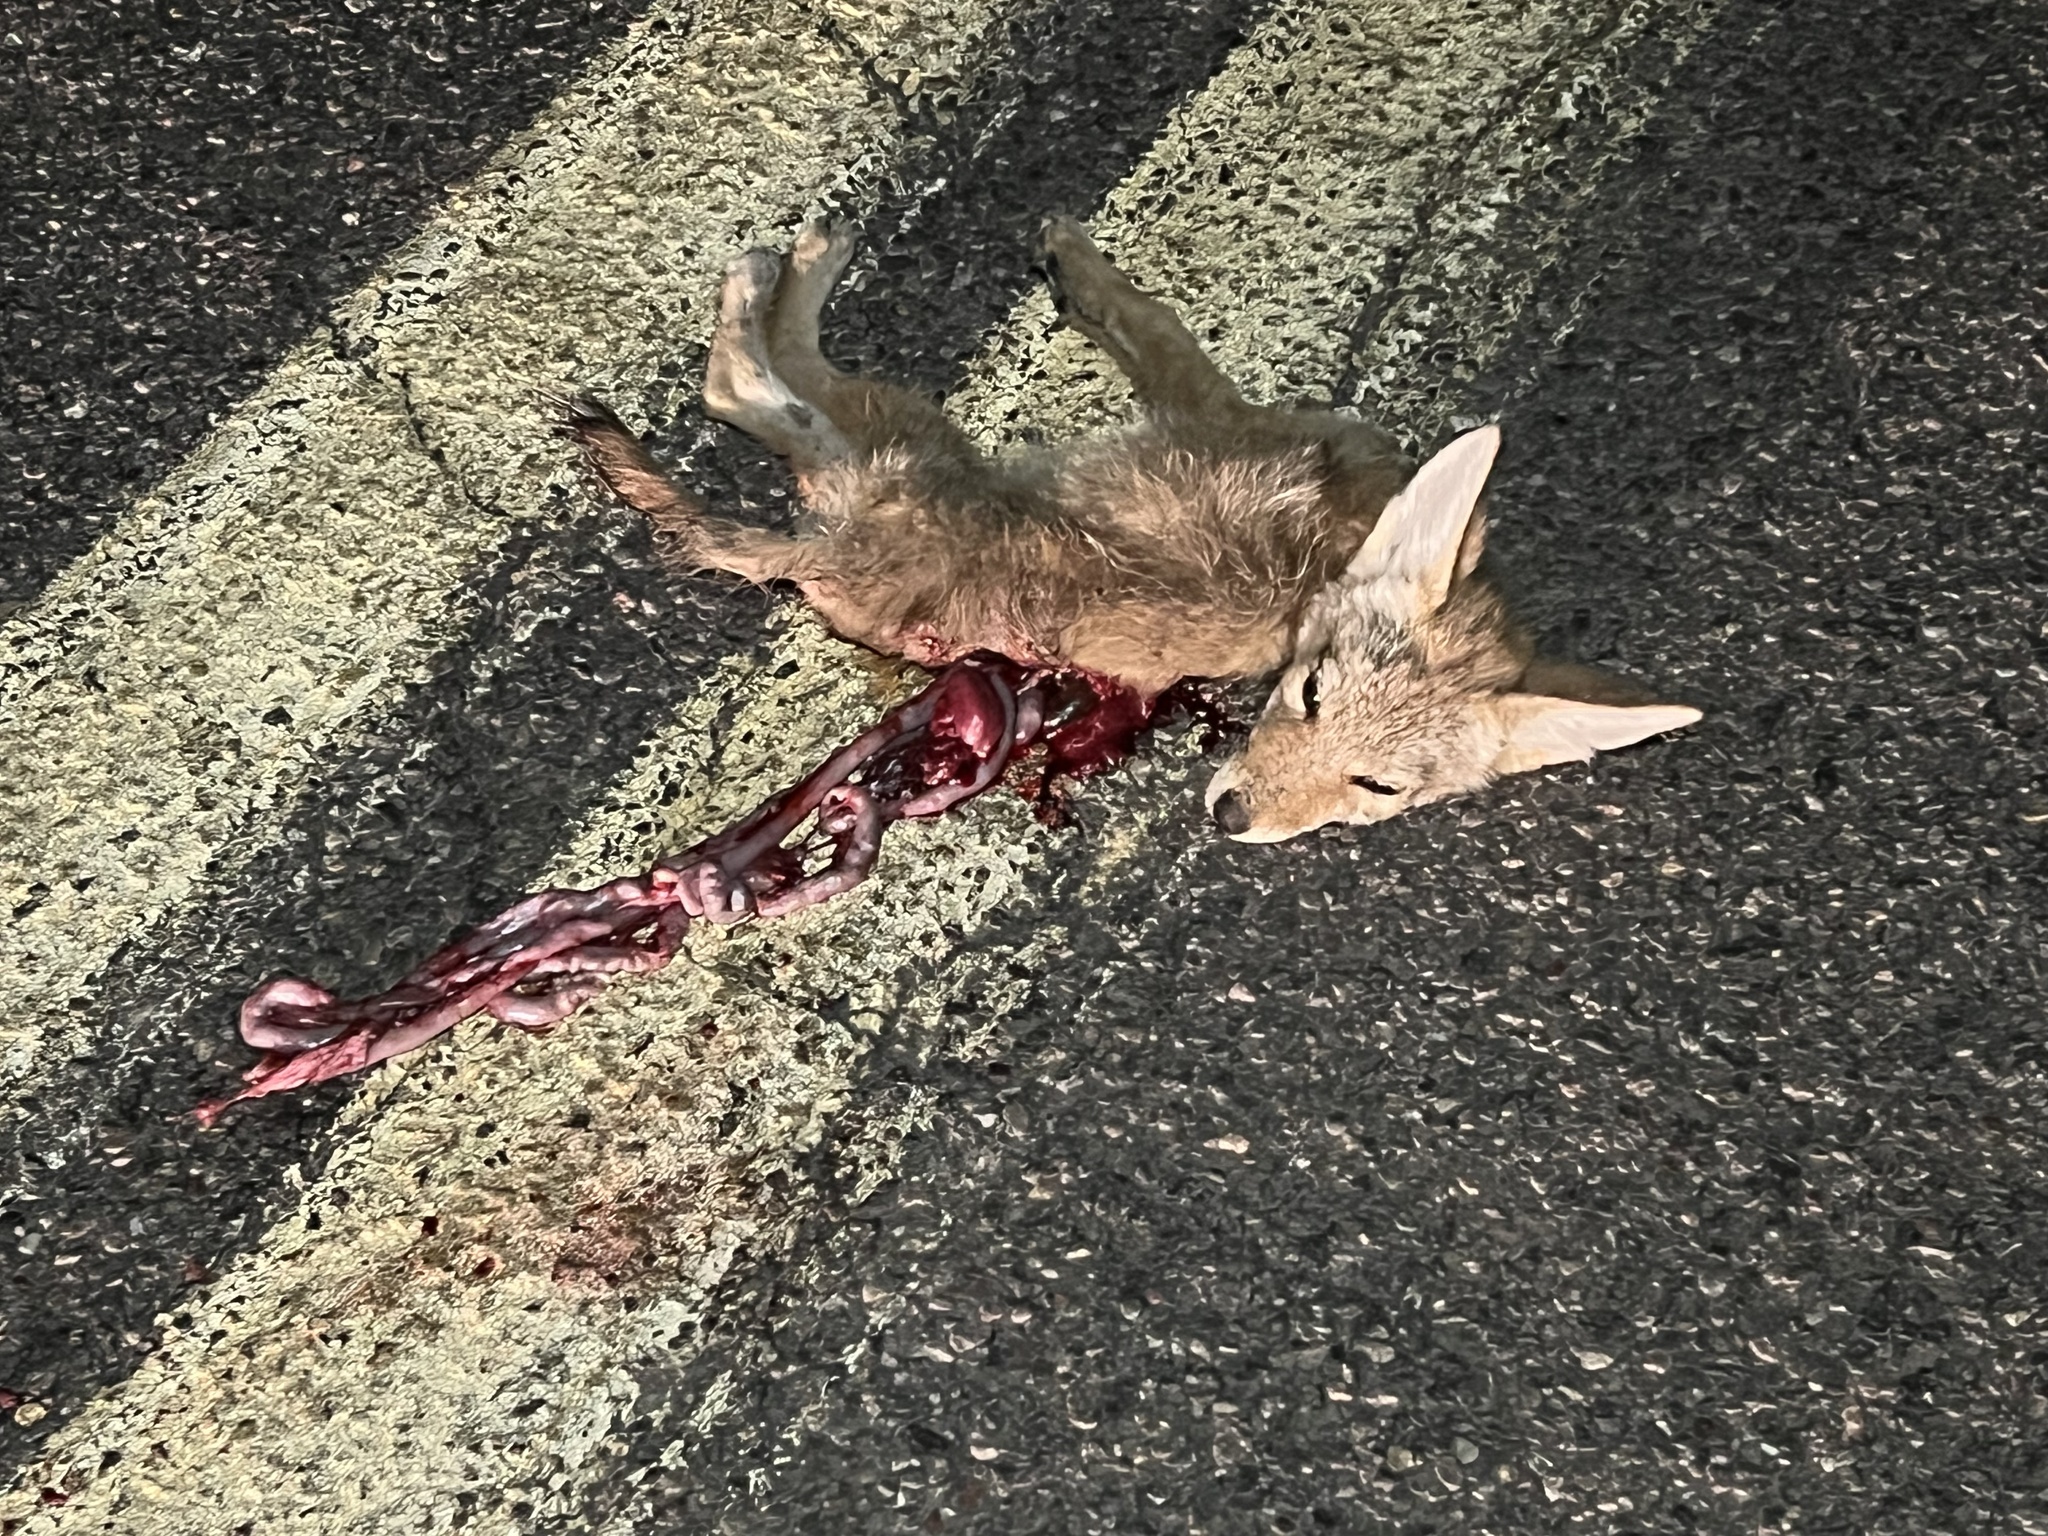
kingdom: Animalia
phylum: Chordata
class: Mammalia
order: Carnivora
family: Canidae
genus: Canis
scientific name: Canis latrans
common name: Coyote
